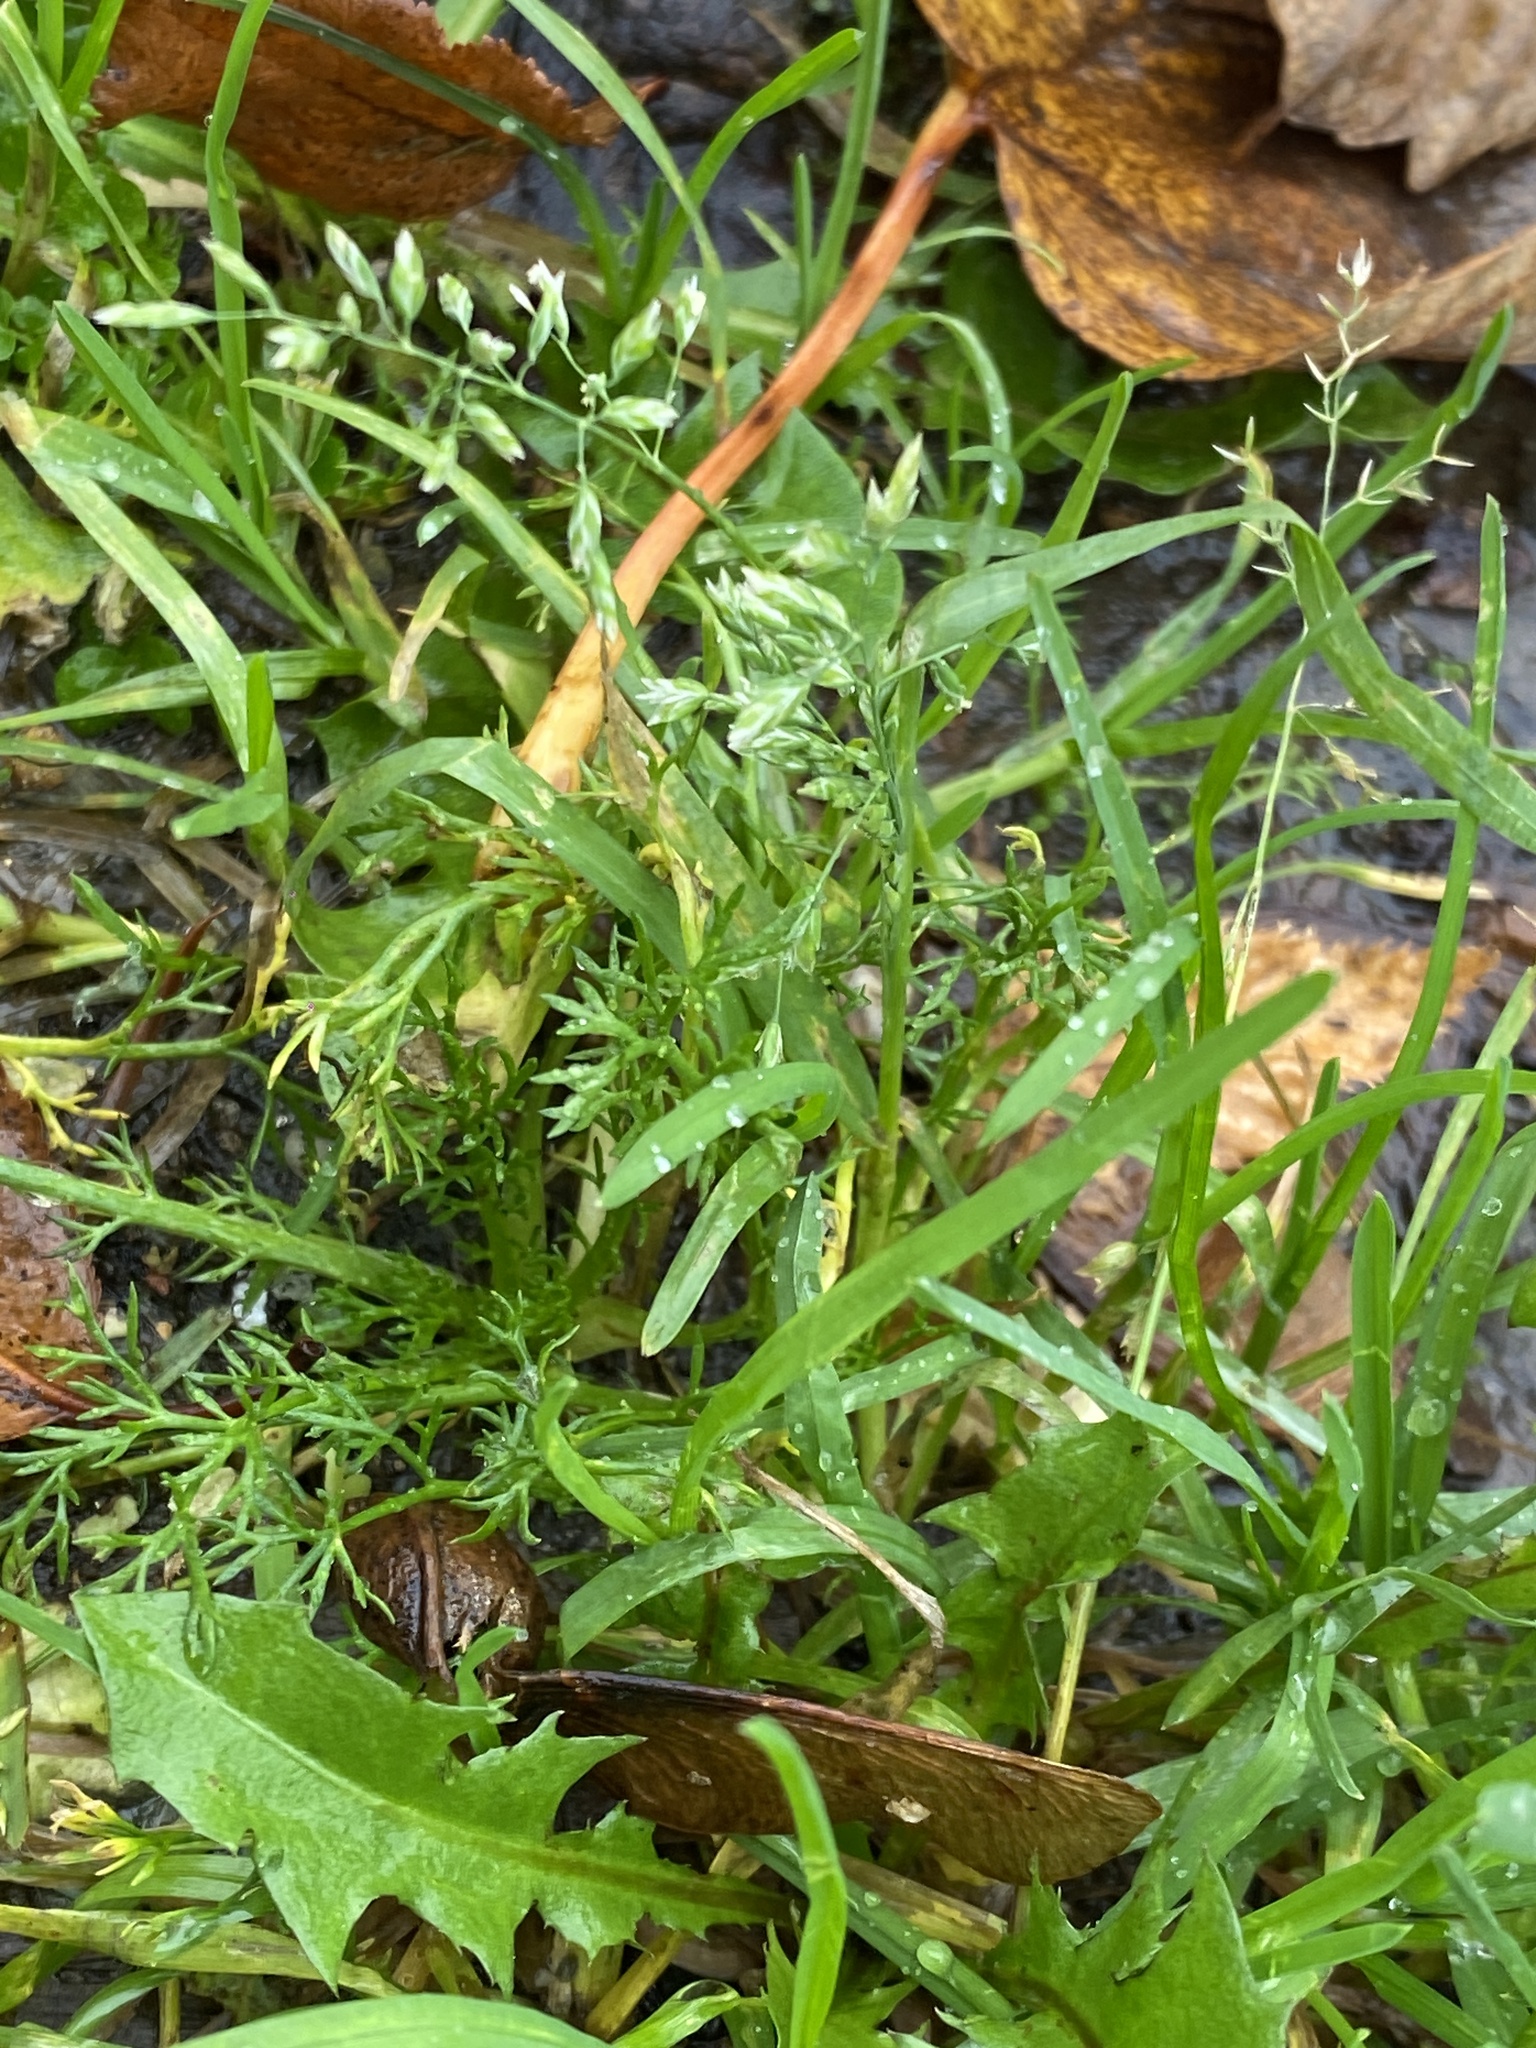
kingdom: Plantae
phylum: Tracheophyta
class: Liliopsida
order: Poales
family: Poaceae
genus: Poa
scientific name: Poa annua
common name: Annual bluegrass
